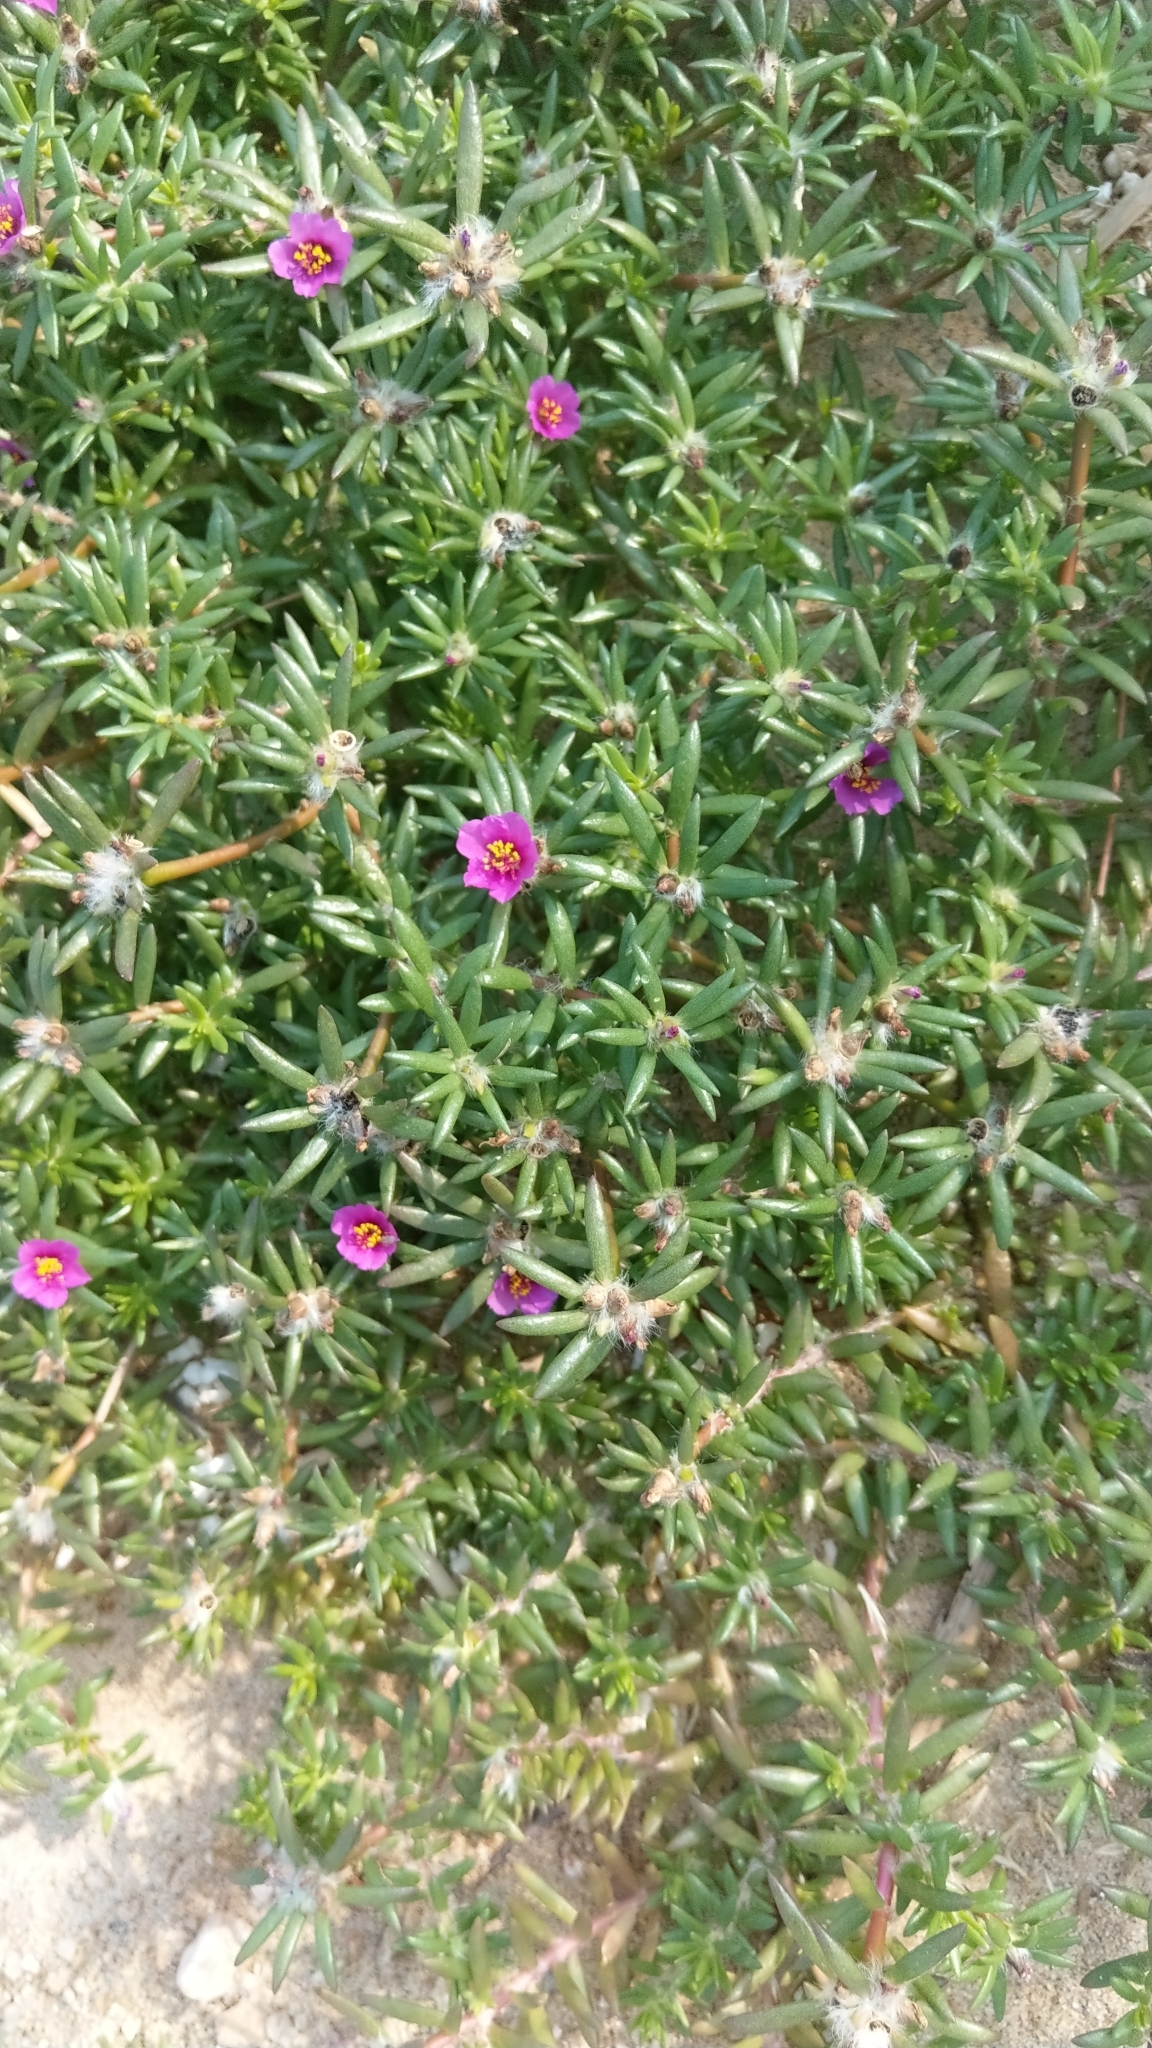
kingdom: Plantae
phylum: Tracheophyta
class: Magnoliopsida
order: Caryophyllales
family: Portulacaceae
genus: Portulaca
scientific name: Portulaca pilosa
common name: Kiss me quick
